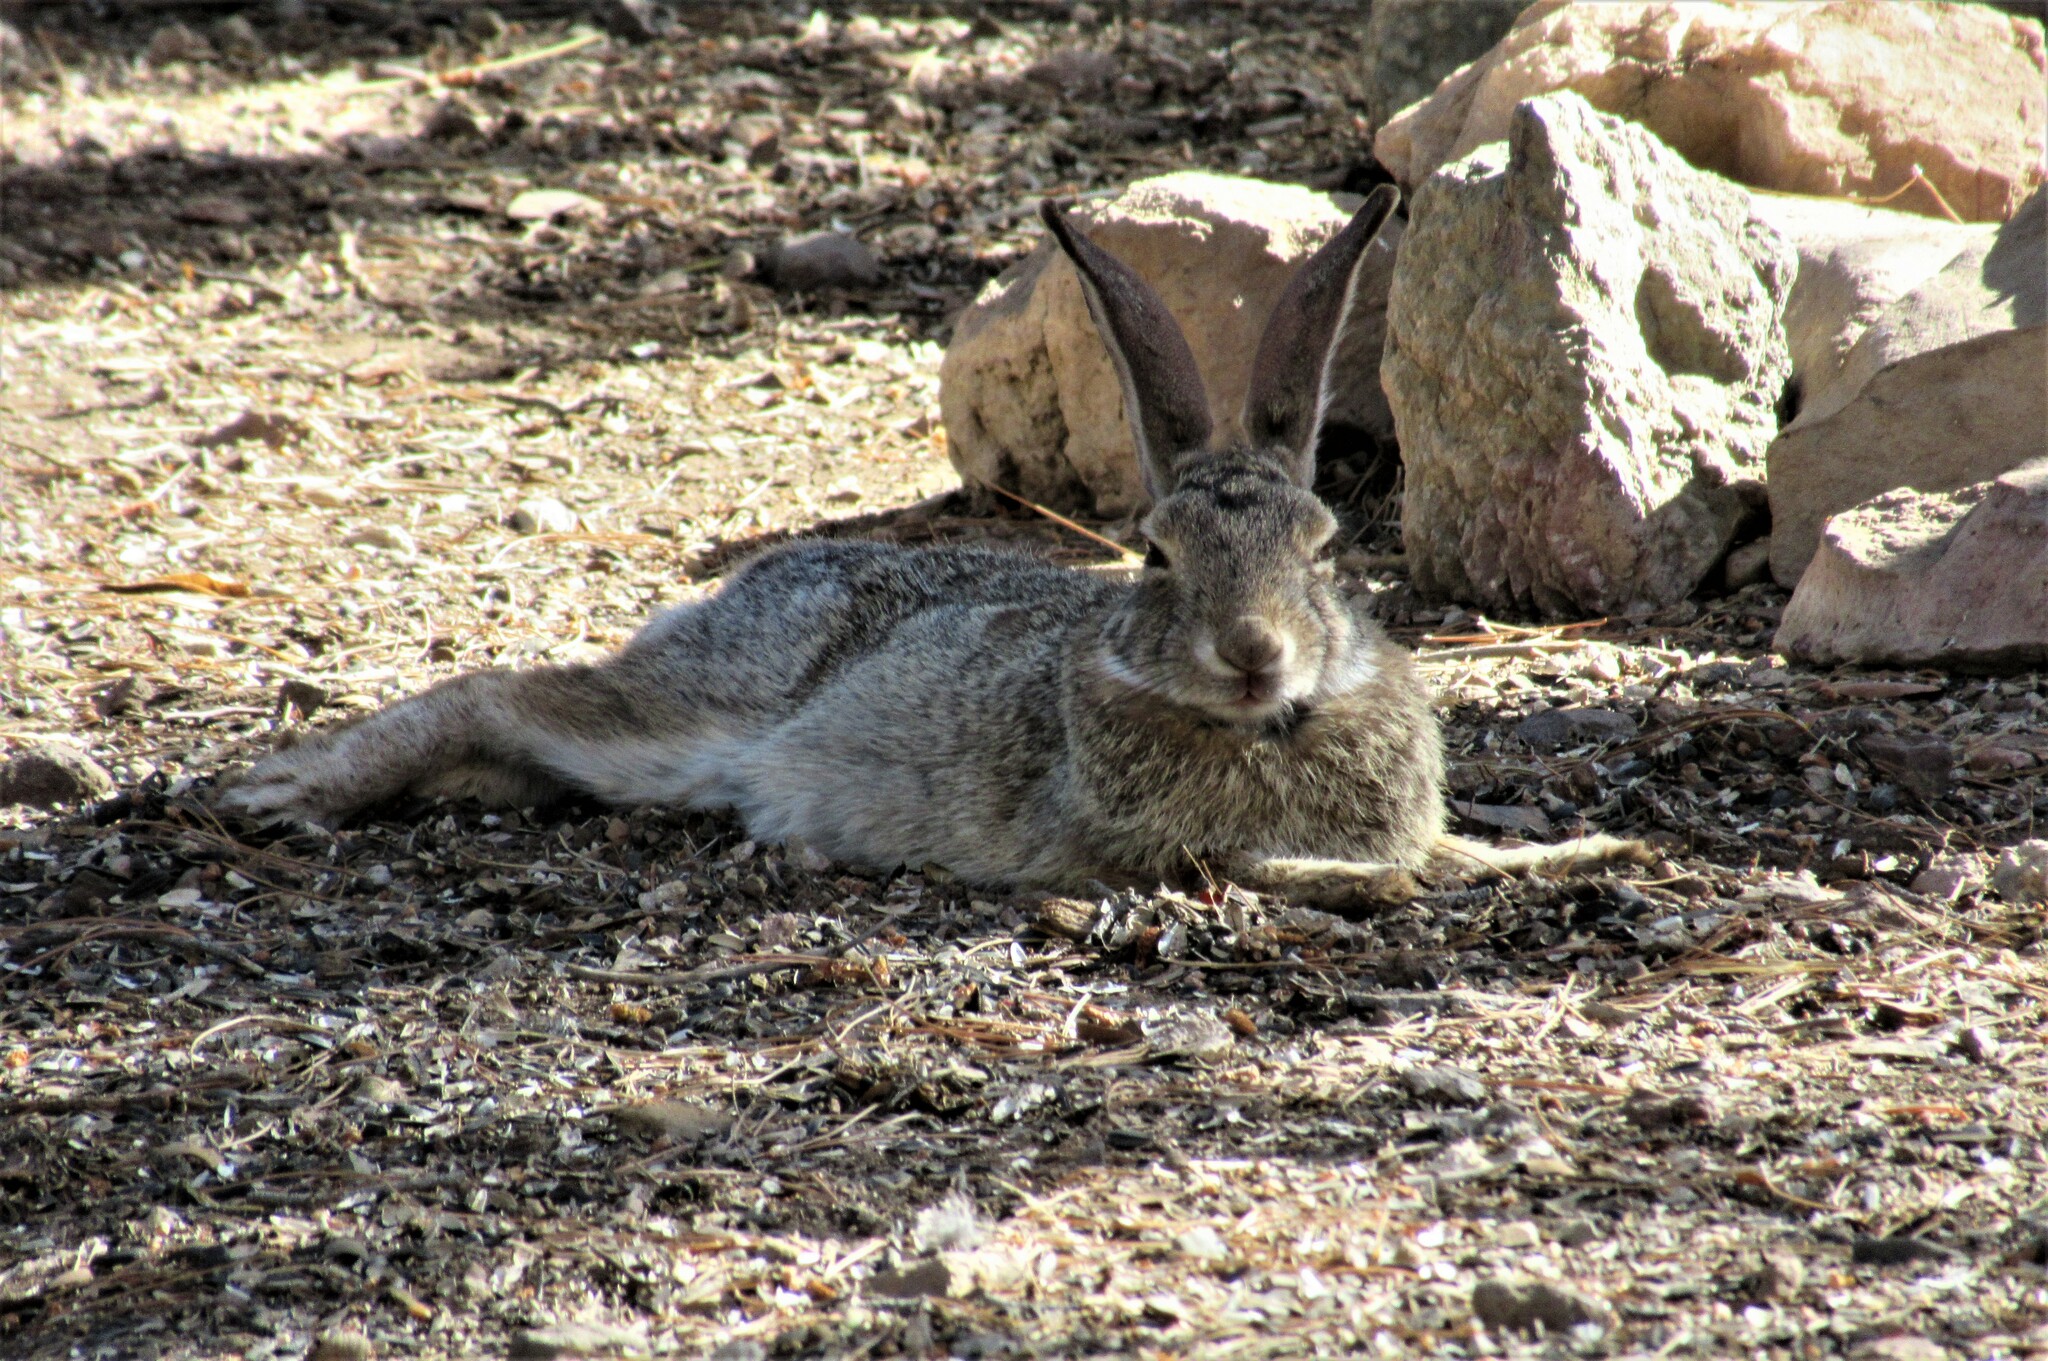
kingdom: Animalia
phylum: Chordata
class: Mammalia
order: Lagomorpha
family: Leporidae
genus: Sylvilagus
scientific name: Sylvilagus audubonii
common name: Desert cottontail
